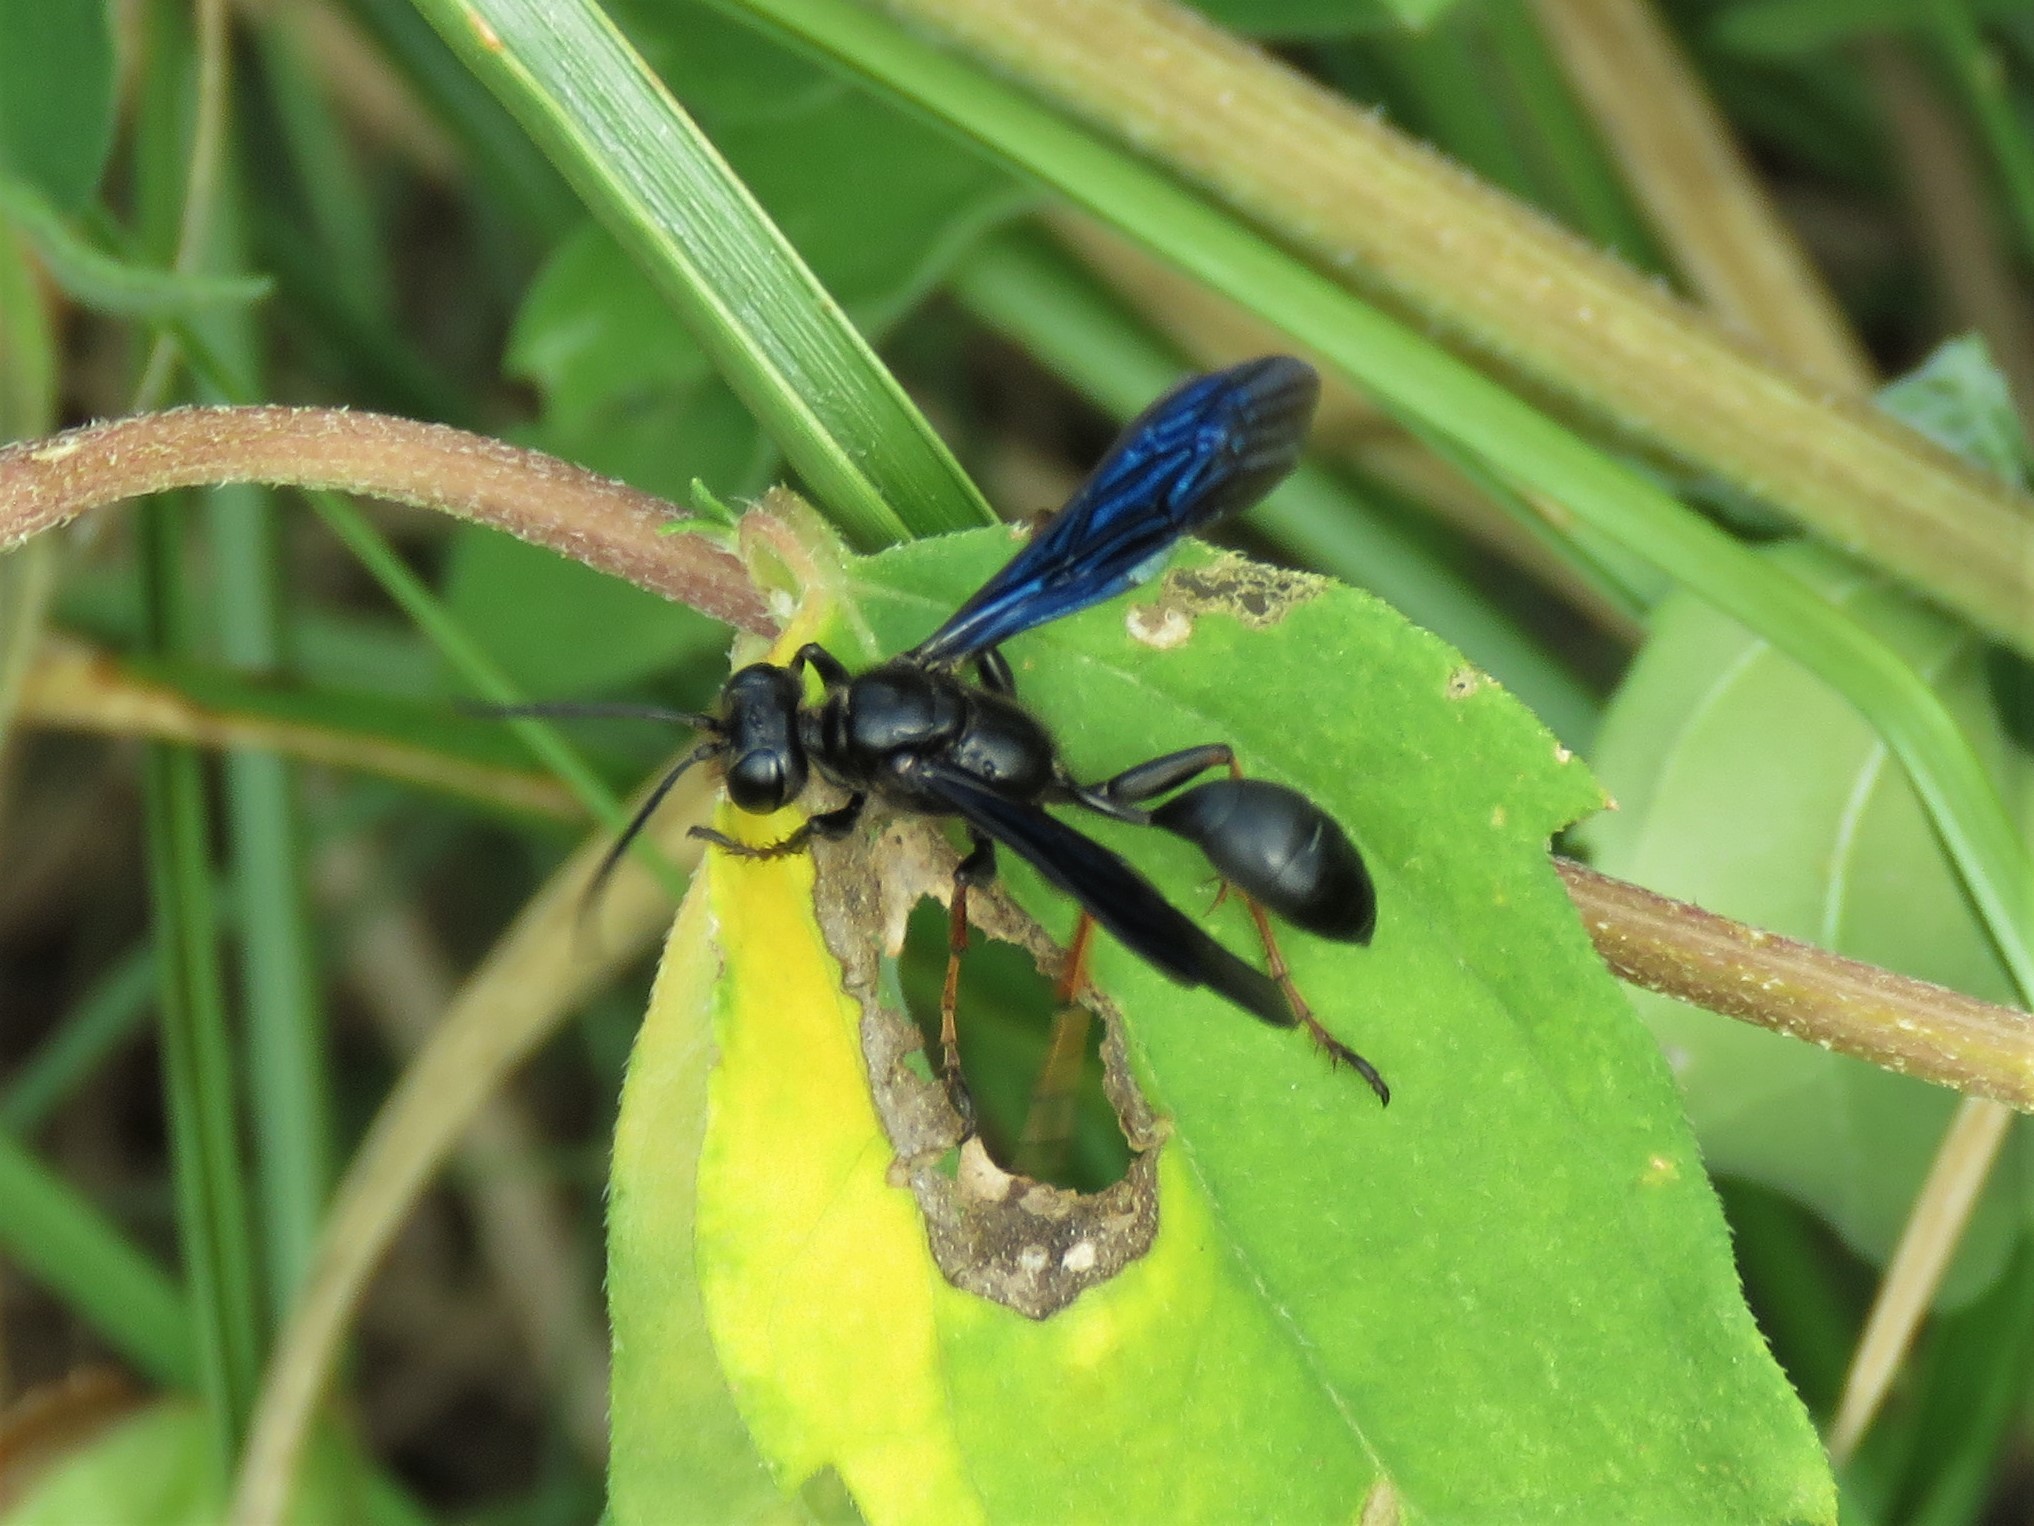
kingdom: Animalia
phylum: Arthropoda
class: Insecta
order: Hymenoptera
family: Sphecidae
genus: Isodontia
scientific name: Isodontia auripes
